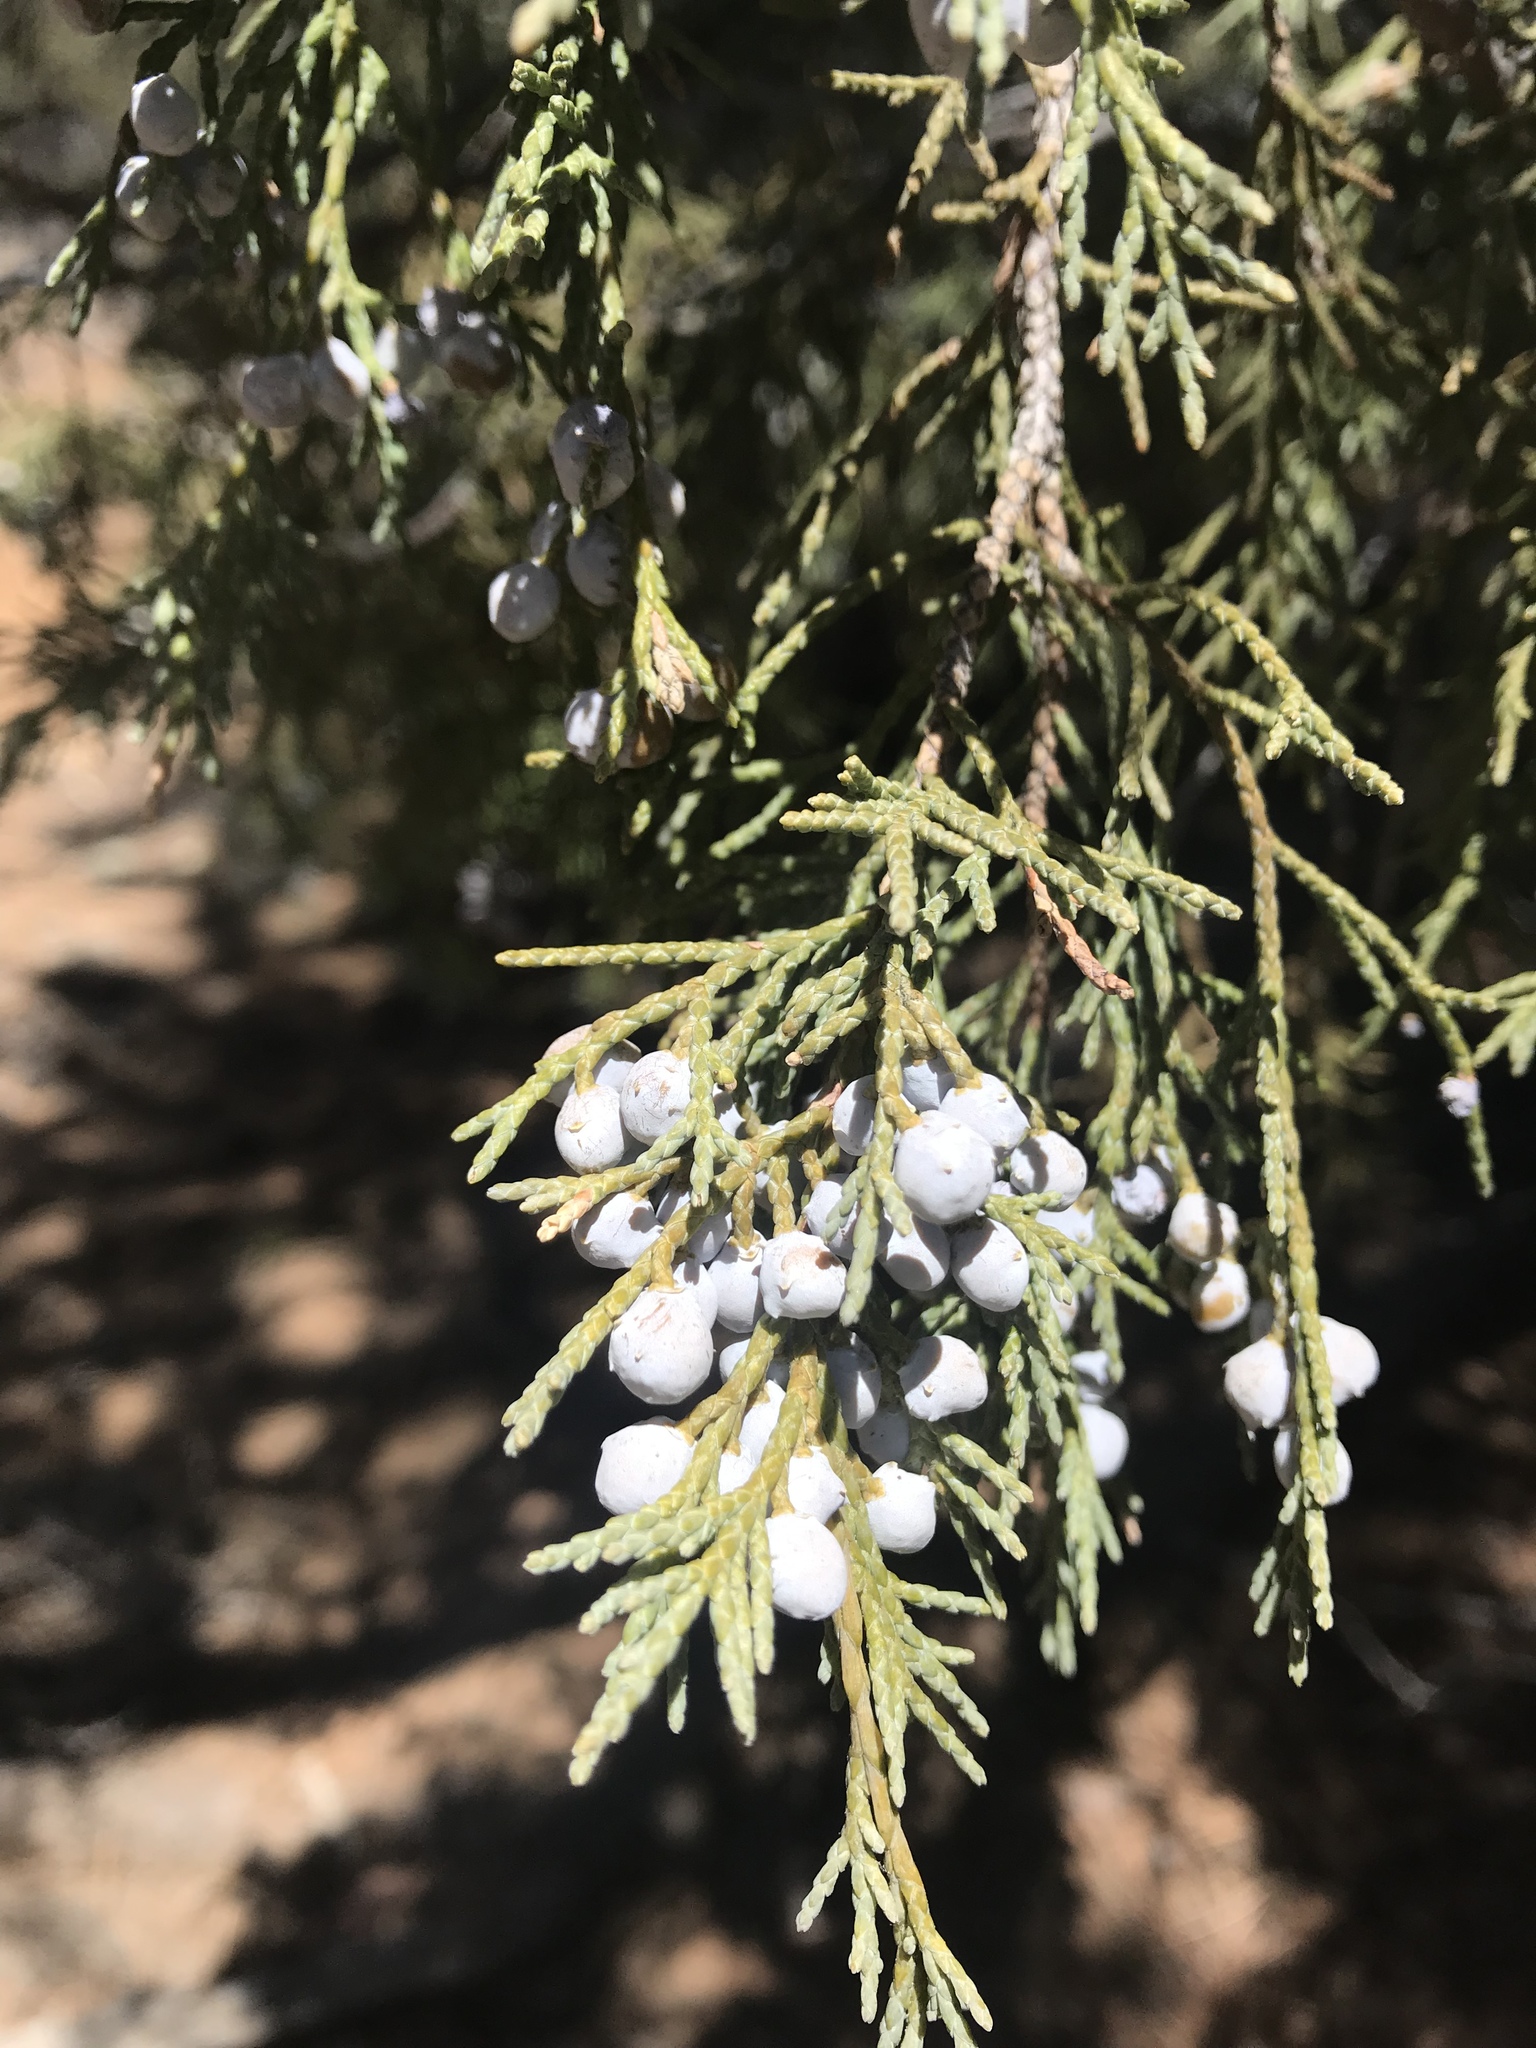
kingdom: Plantae
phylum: Tracheophyta
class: Pinopsida
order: Pinales
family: Cupressaceae
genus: Juniperus
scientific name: Juniperus scopulorum
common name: Rocky mountain juniper
